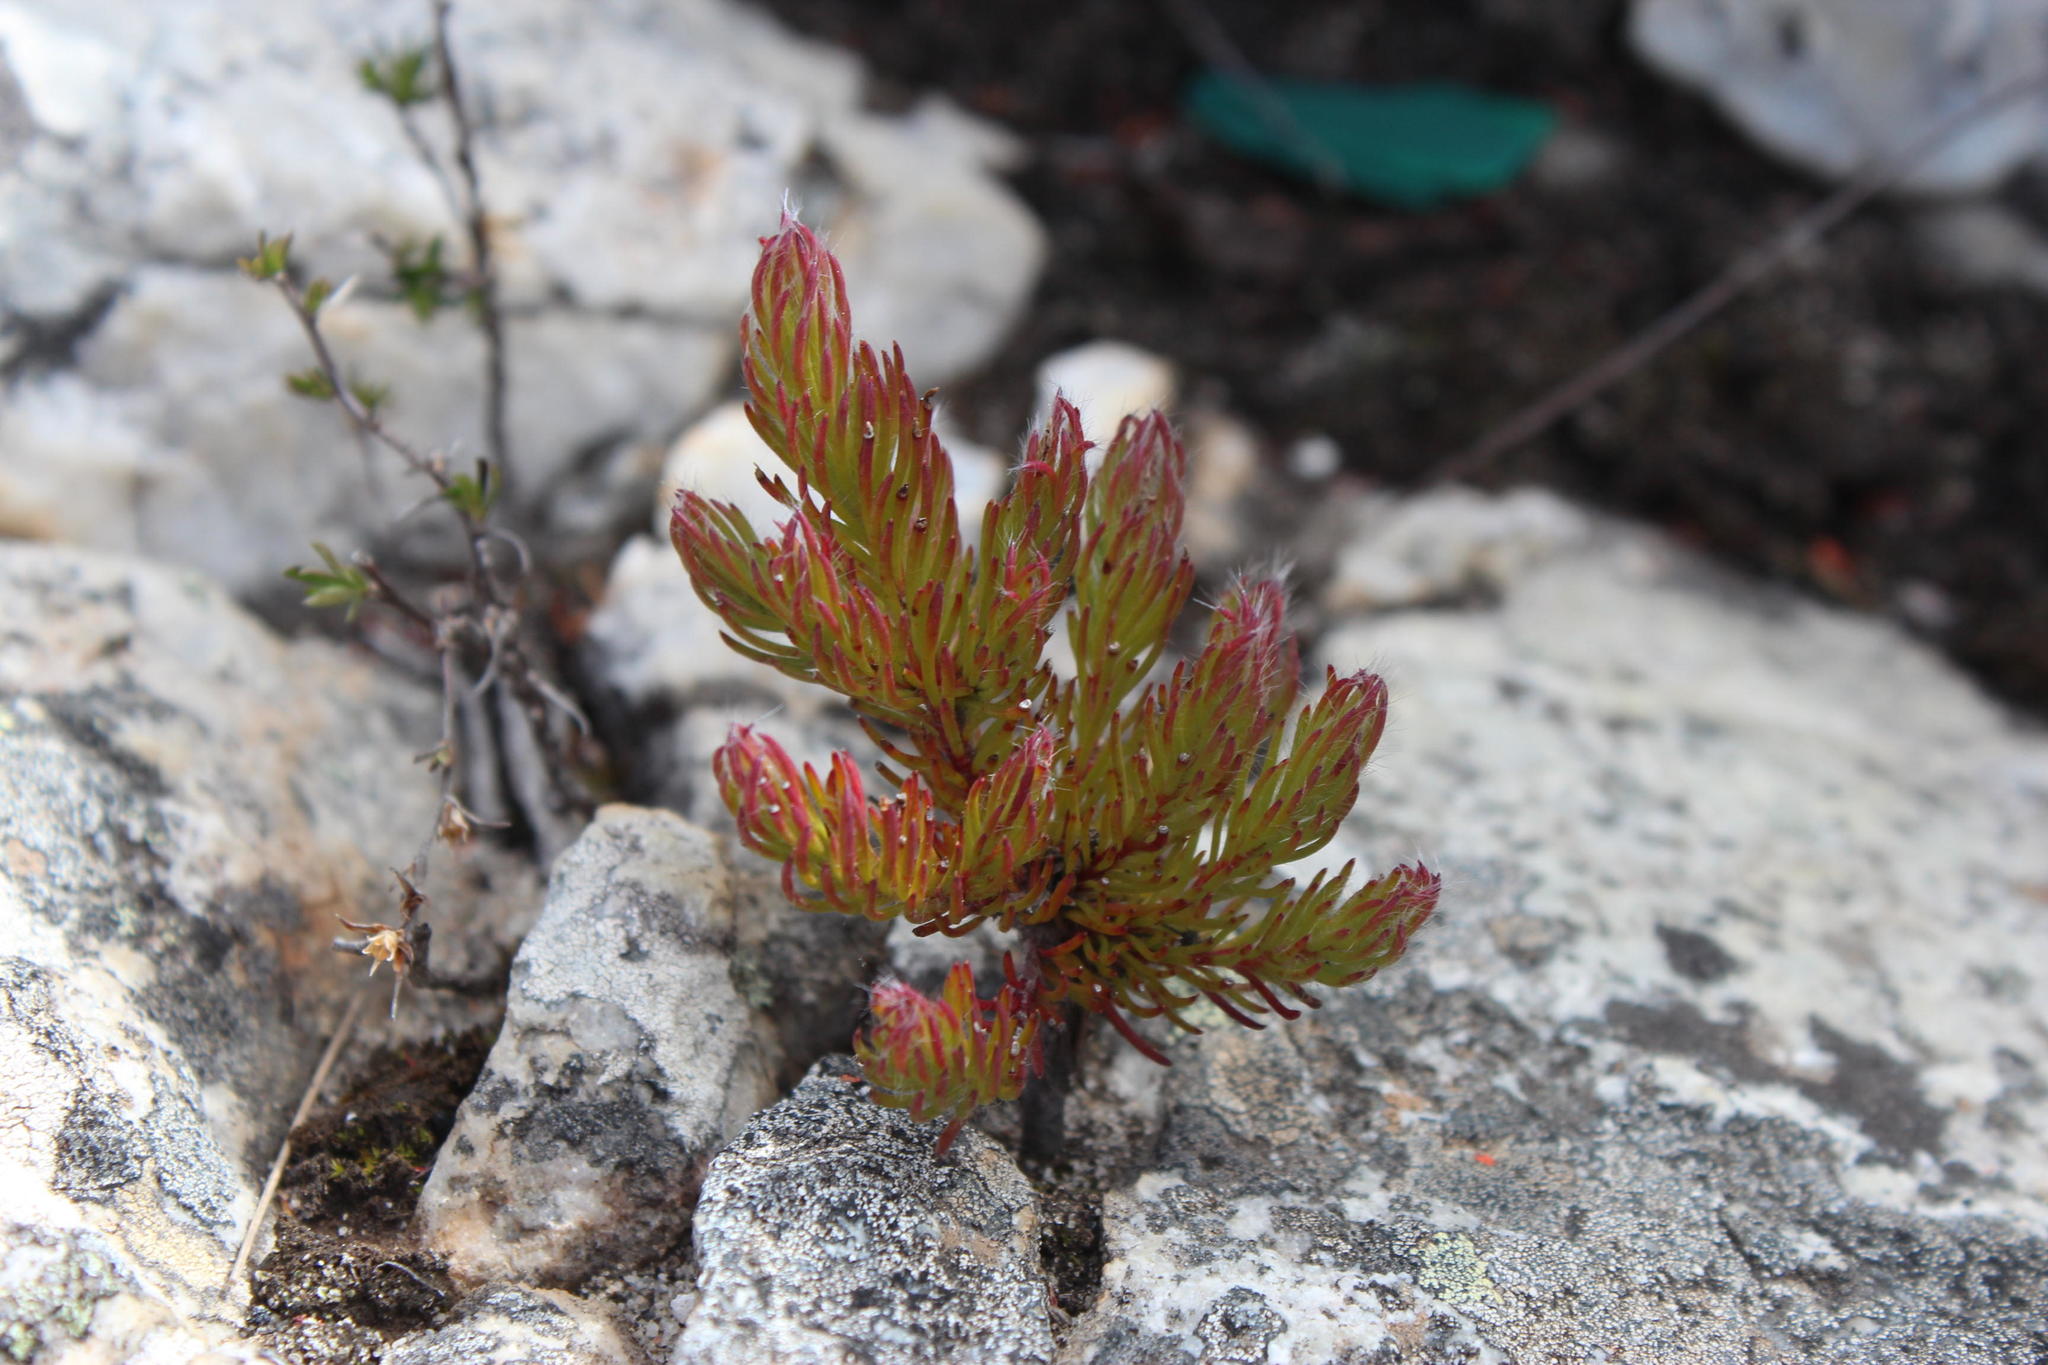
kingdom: Plantae
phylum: Tracheophyta
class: Magnoliopsida
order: Proteales
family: Proteaceae
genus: Spatalla
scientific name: Spatalla confusa
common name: Long-tube spoon
